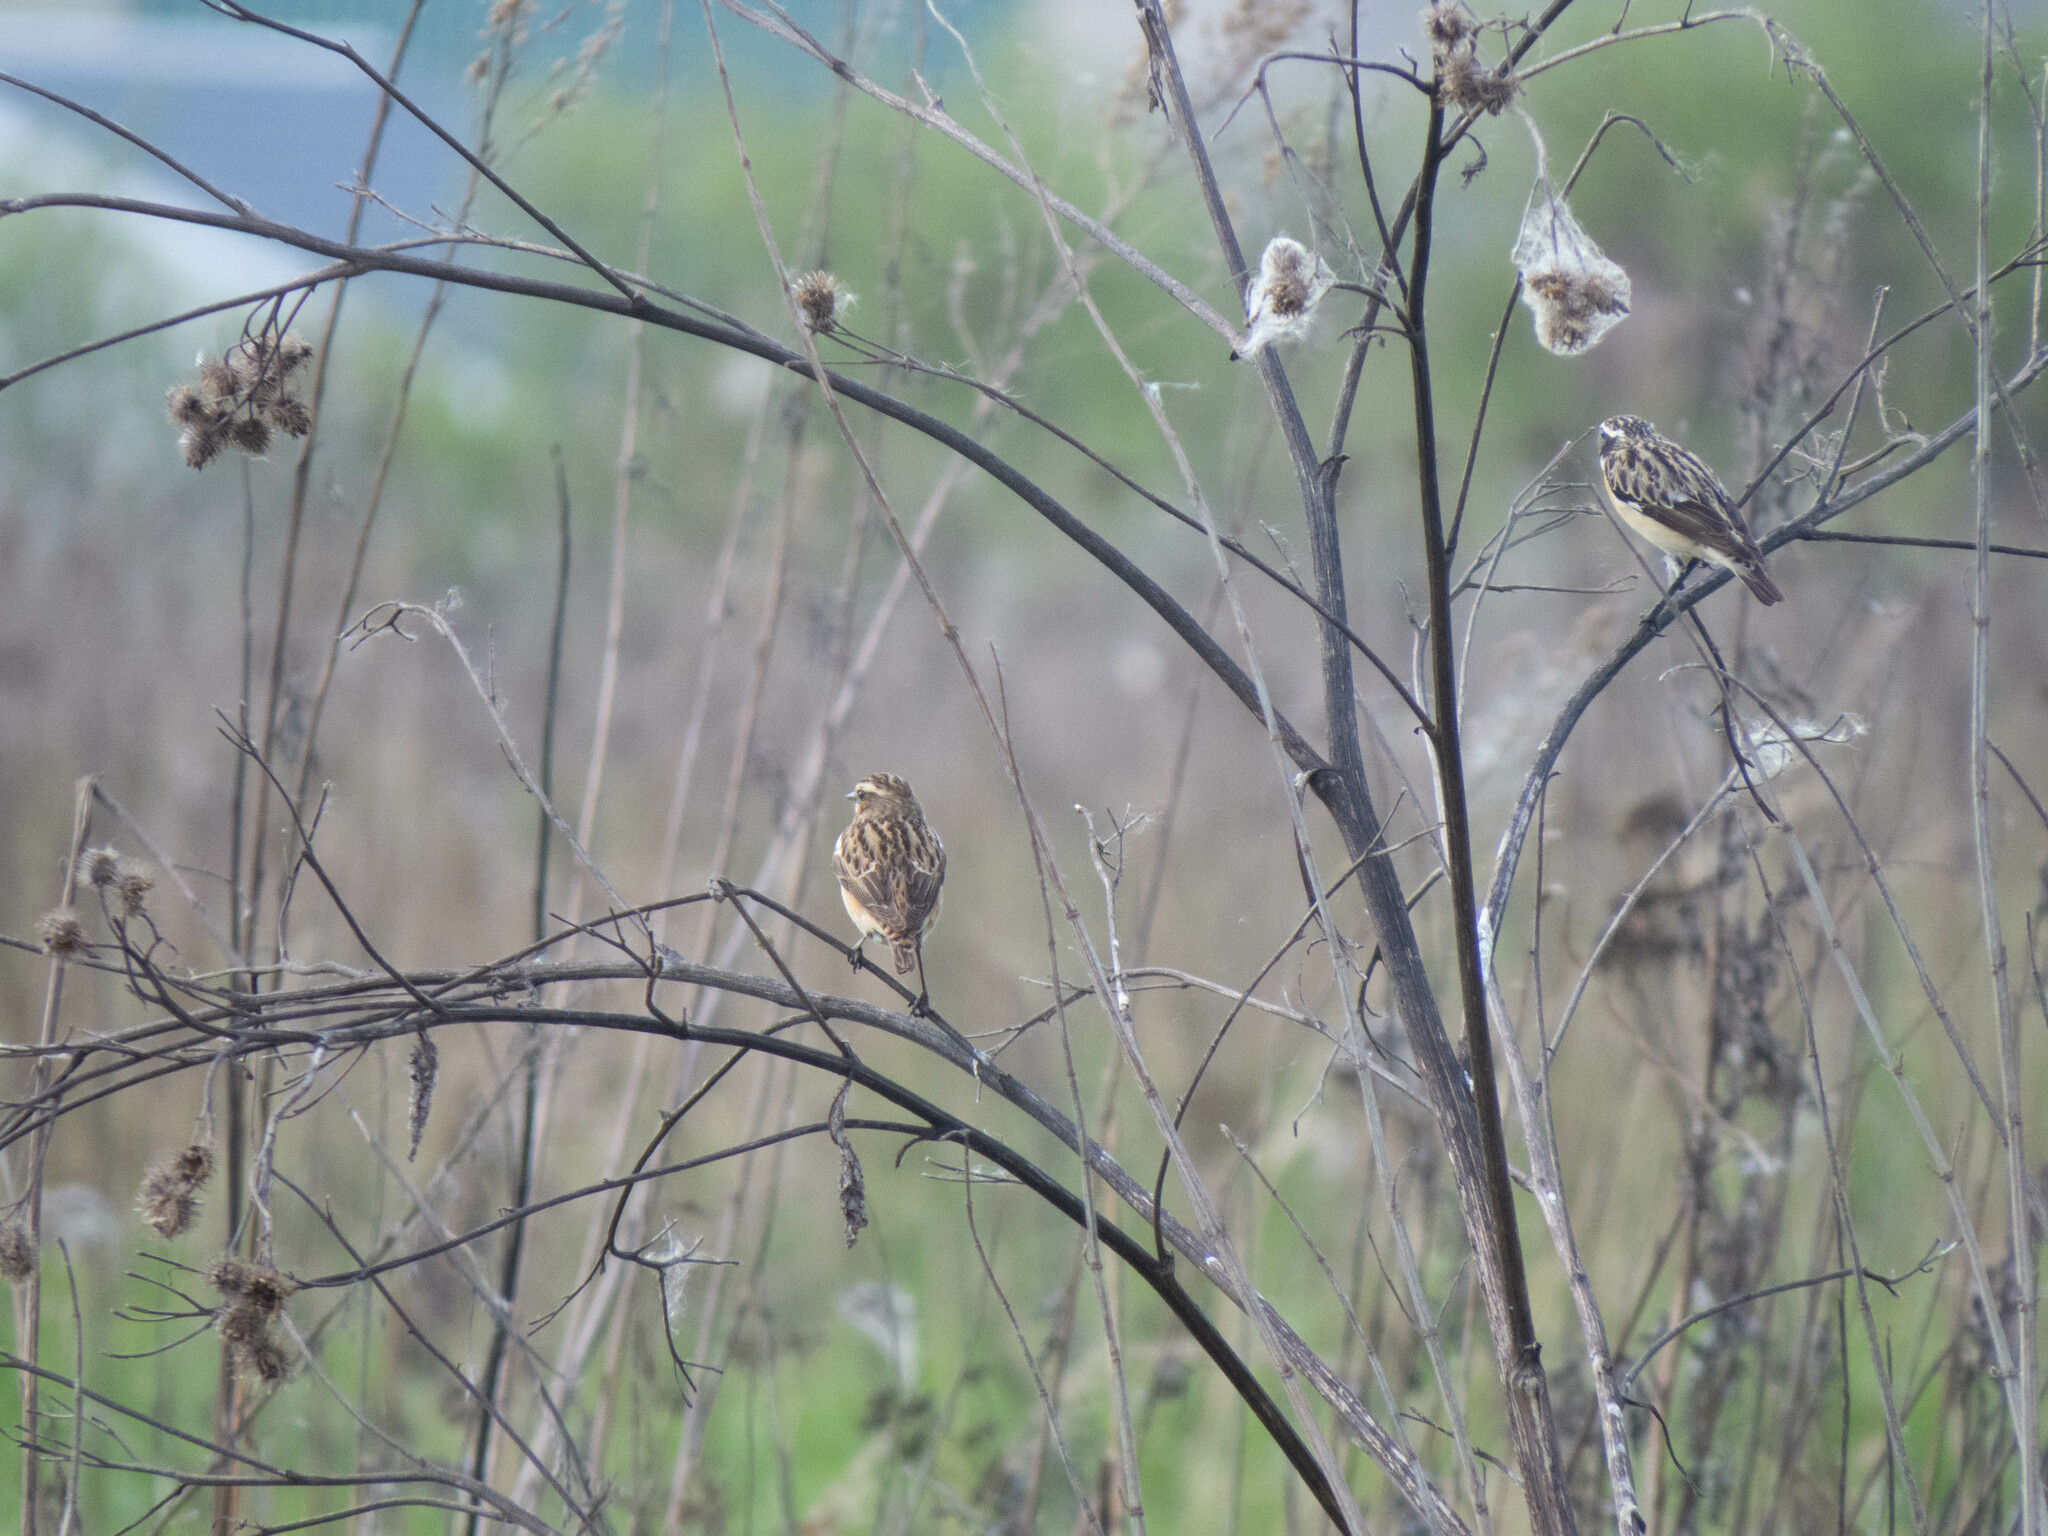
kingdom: Animalia
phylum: Chordata
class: Aves
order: Passeriformes
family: Muscicapidae
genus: Saxicola
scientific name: Saxicola rubetra
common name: Whinchat
